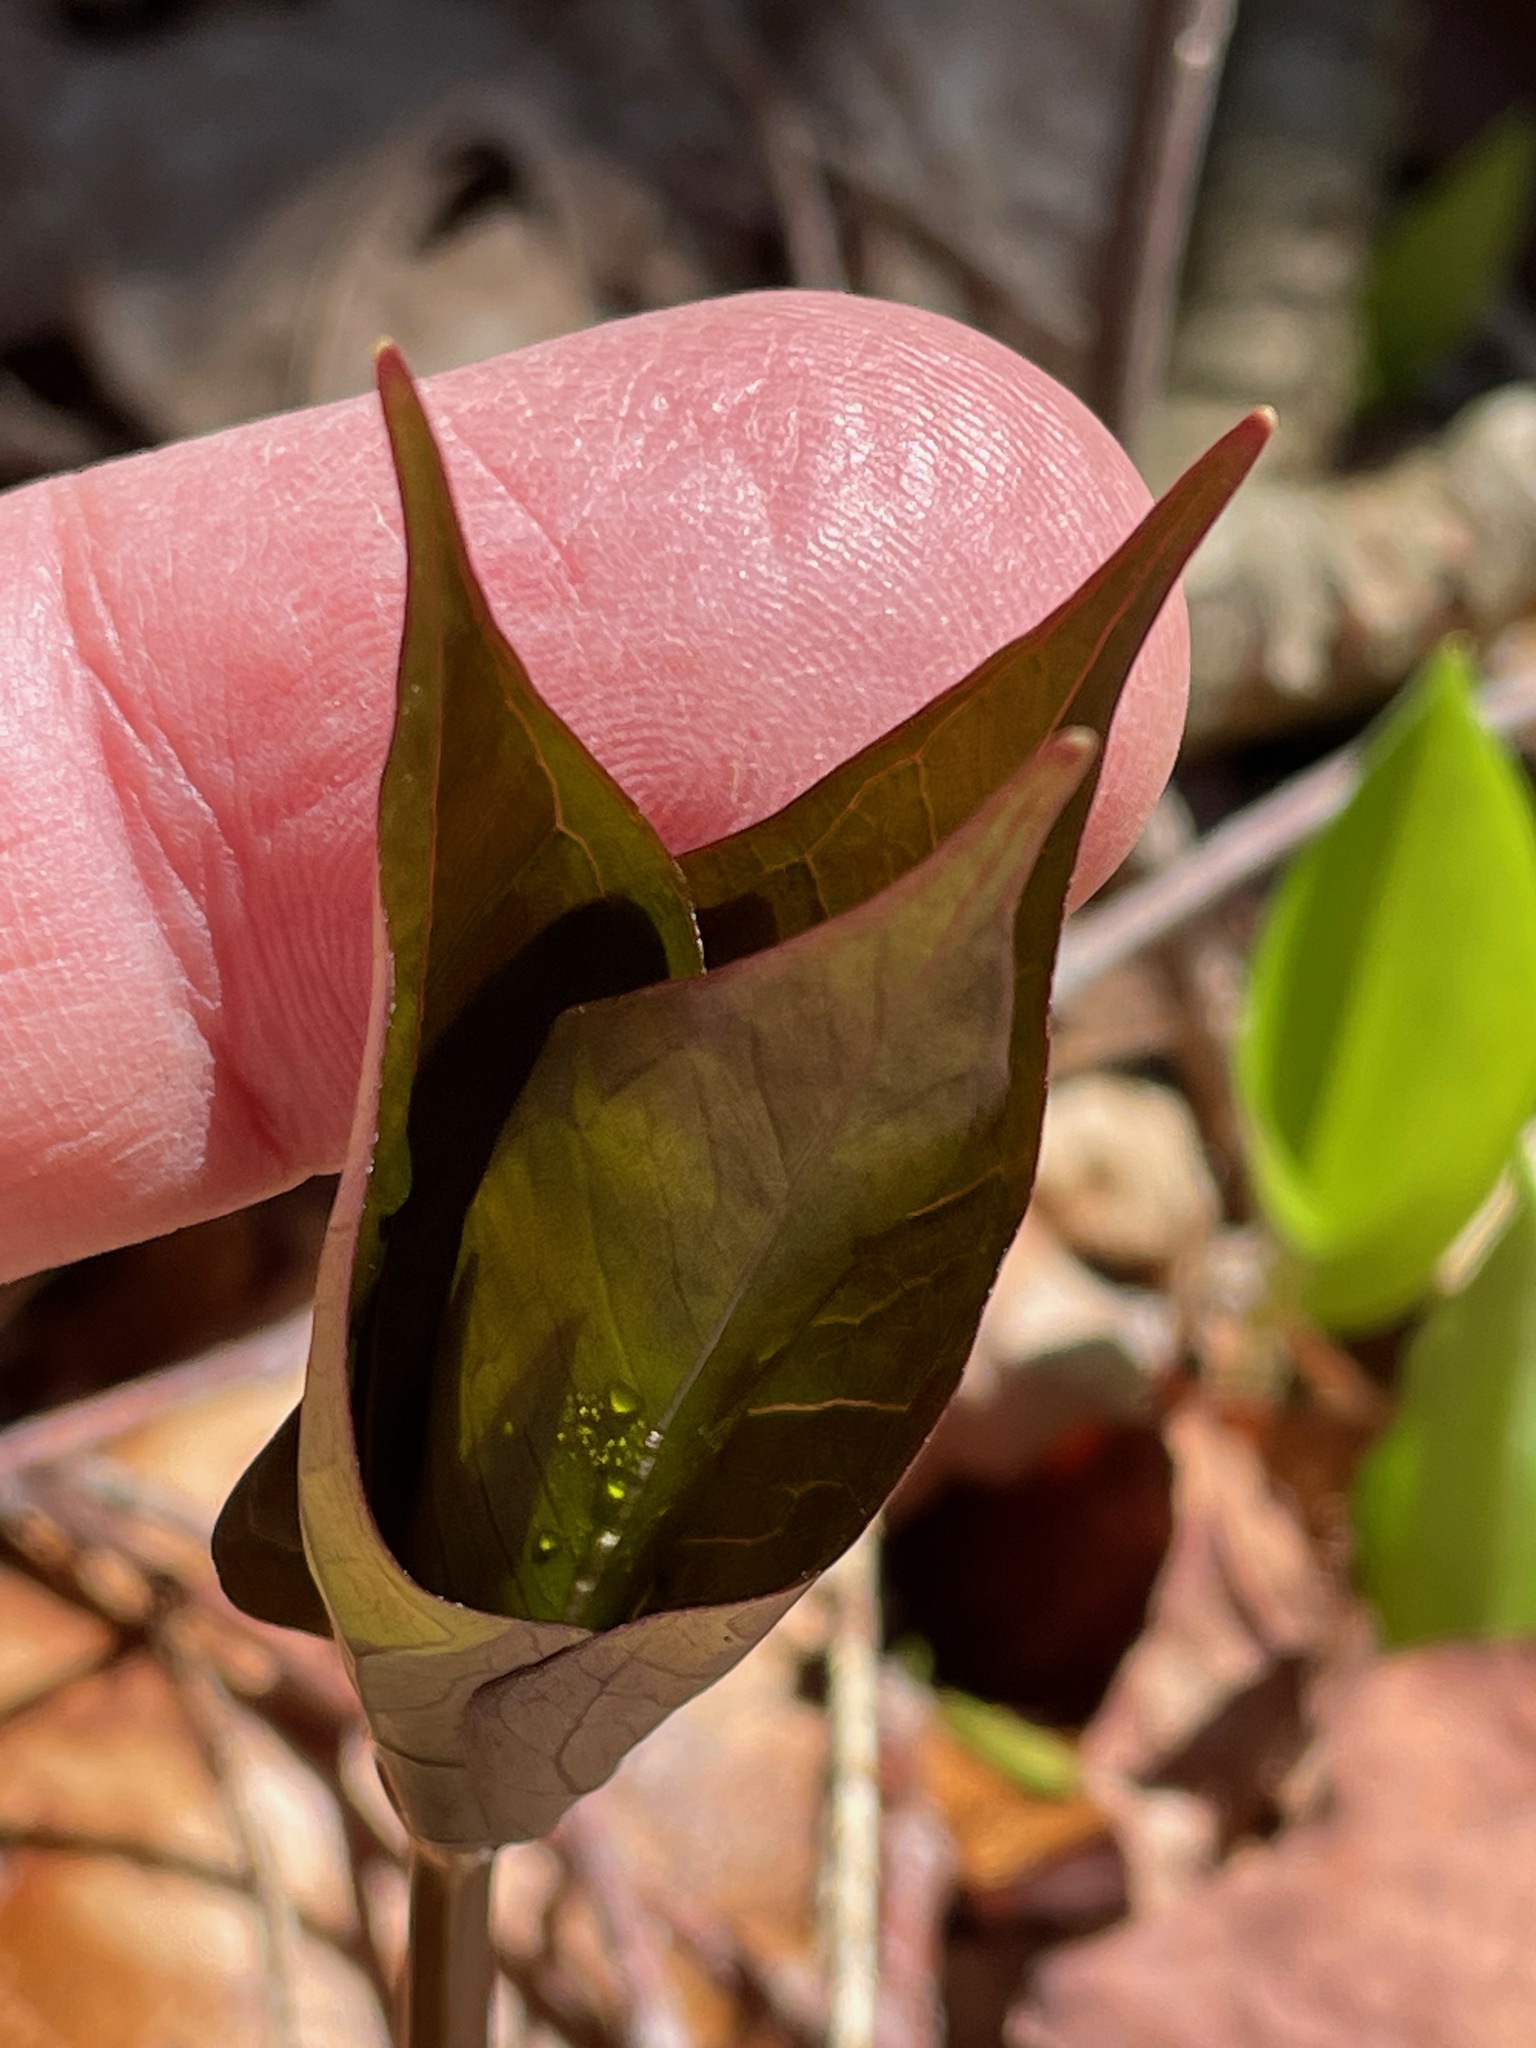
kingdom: Plantae
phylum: Tracheophyta
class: Liliopsida
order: Liliales
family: Melanthiaceae
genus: Trillium
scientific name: Trillium undulatum
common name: Paint trillium
